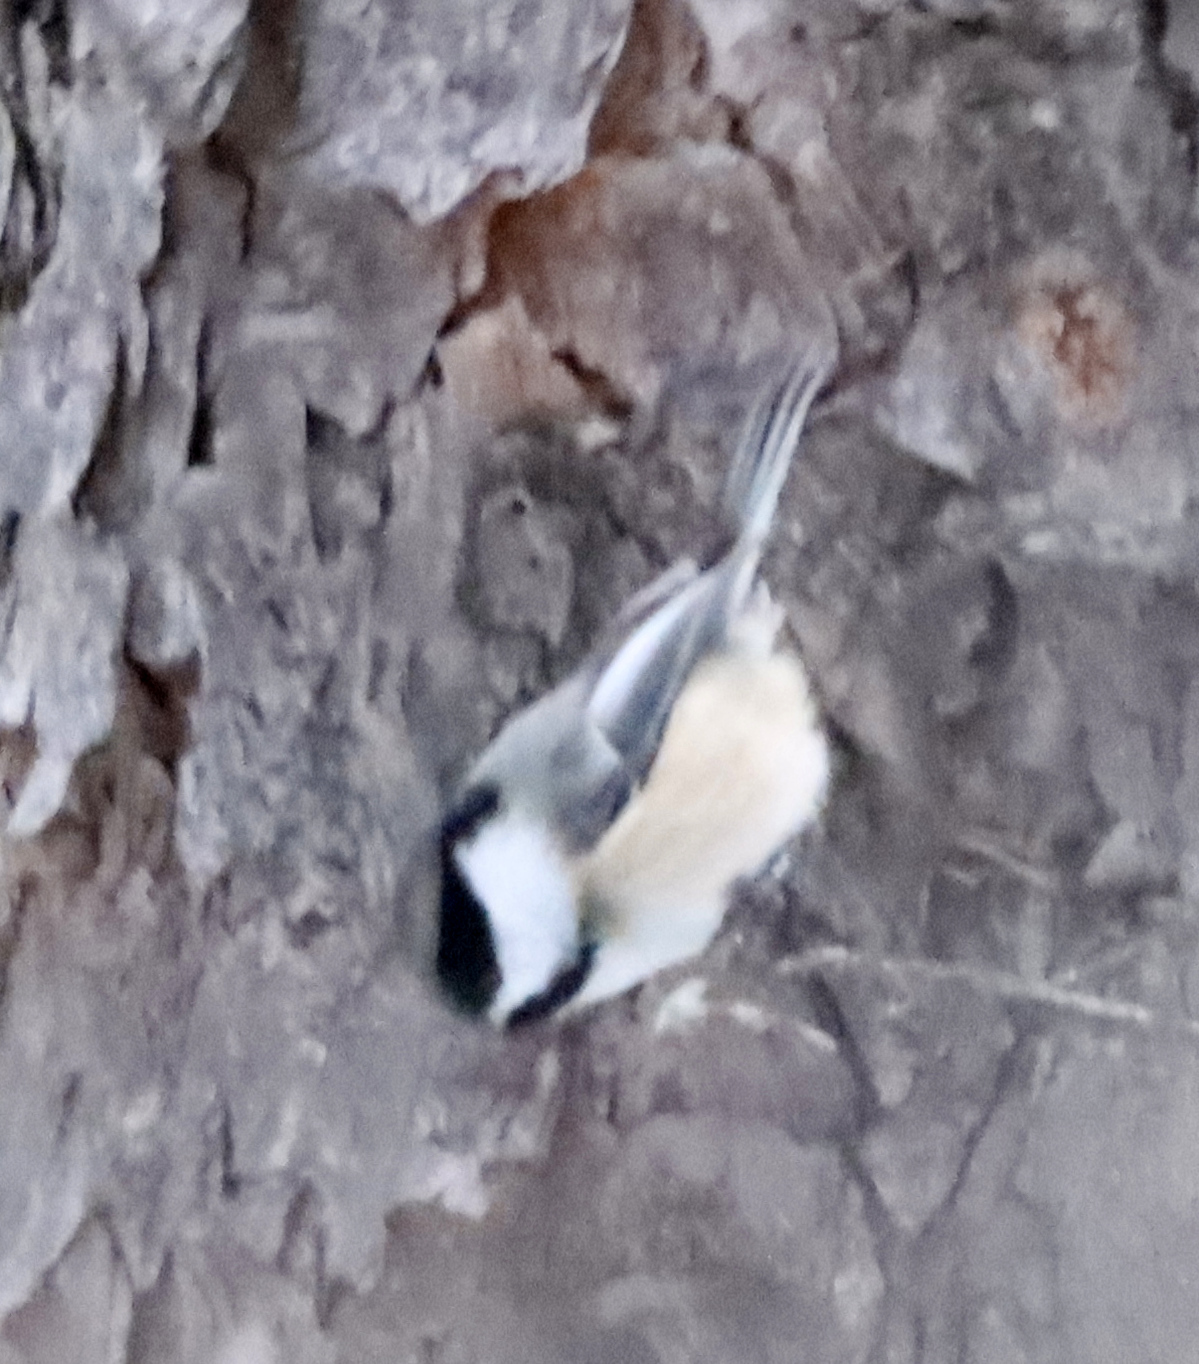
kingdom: Animalia
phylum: Chordata
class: Aves
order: Passeriformes
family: Paridae
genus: Poecile
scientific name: Poecile atricapillus
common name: Black-capped chickadee
